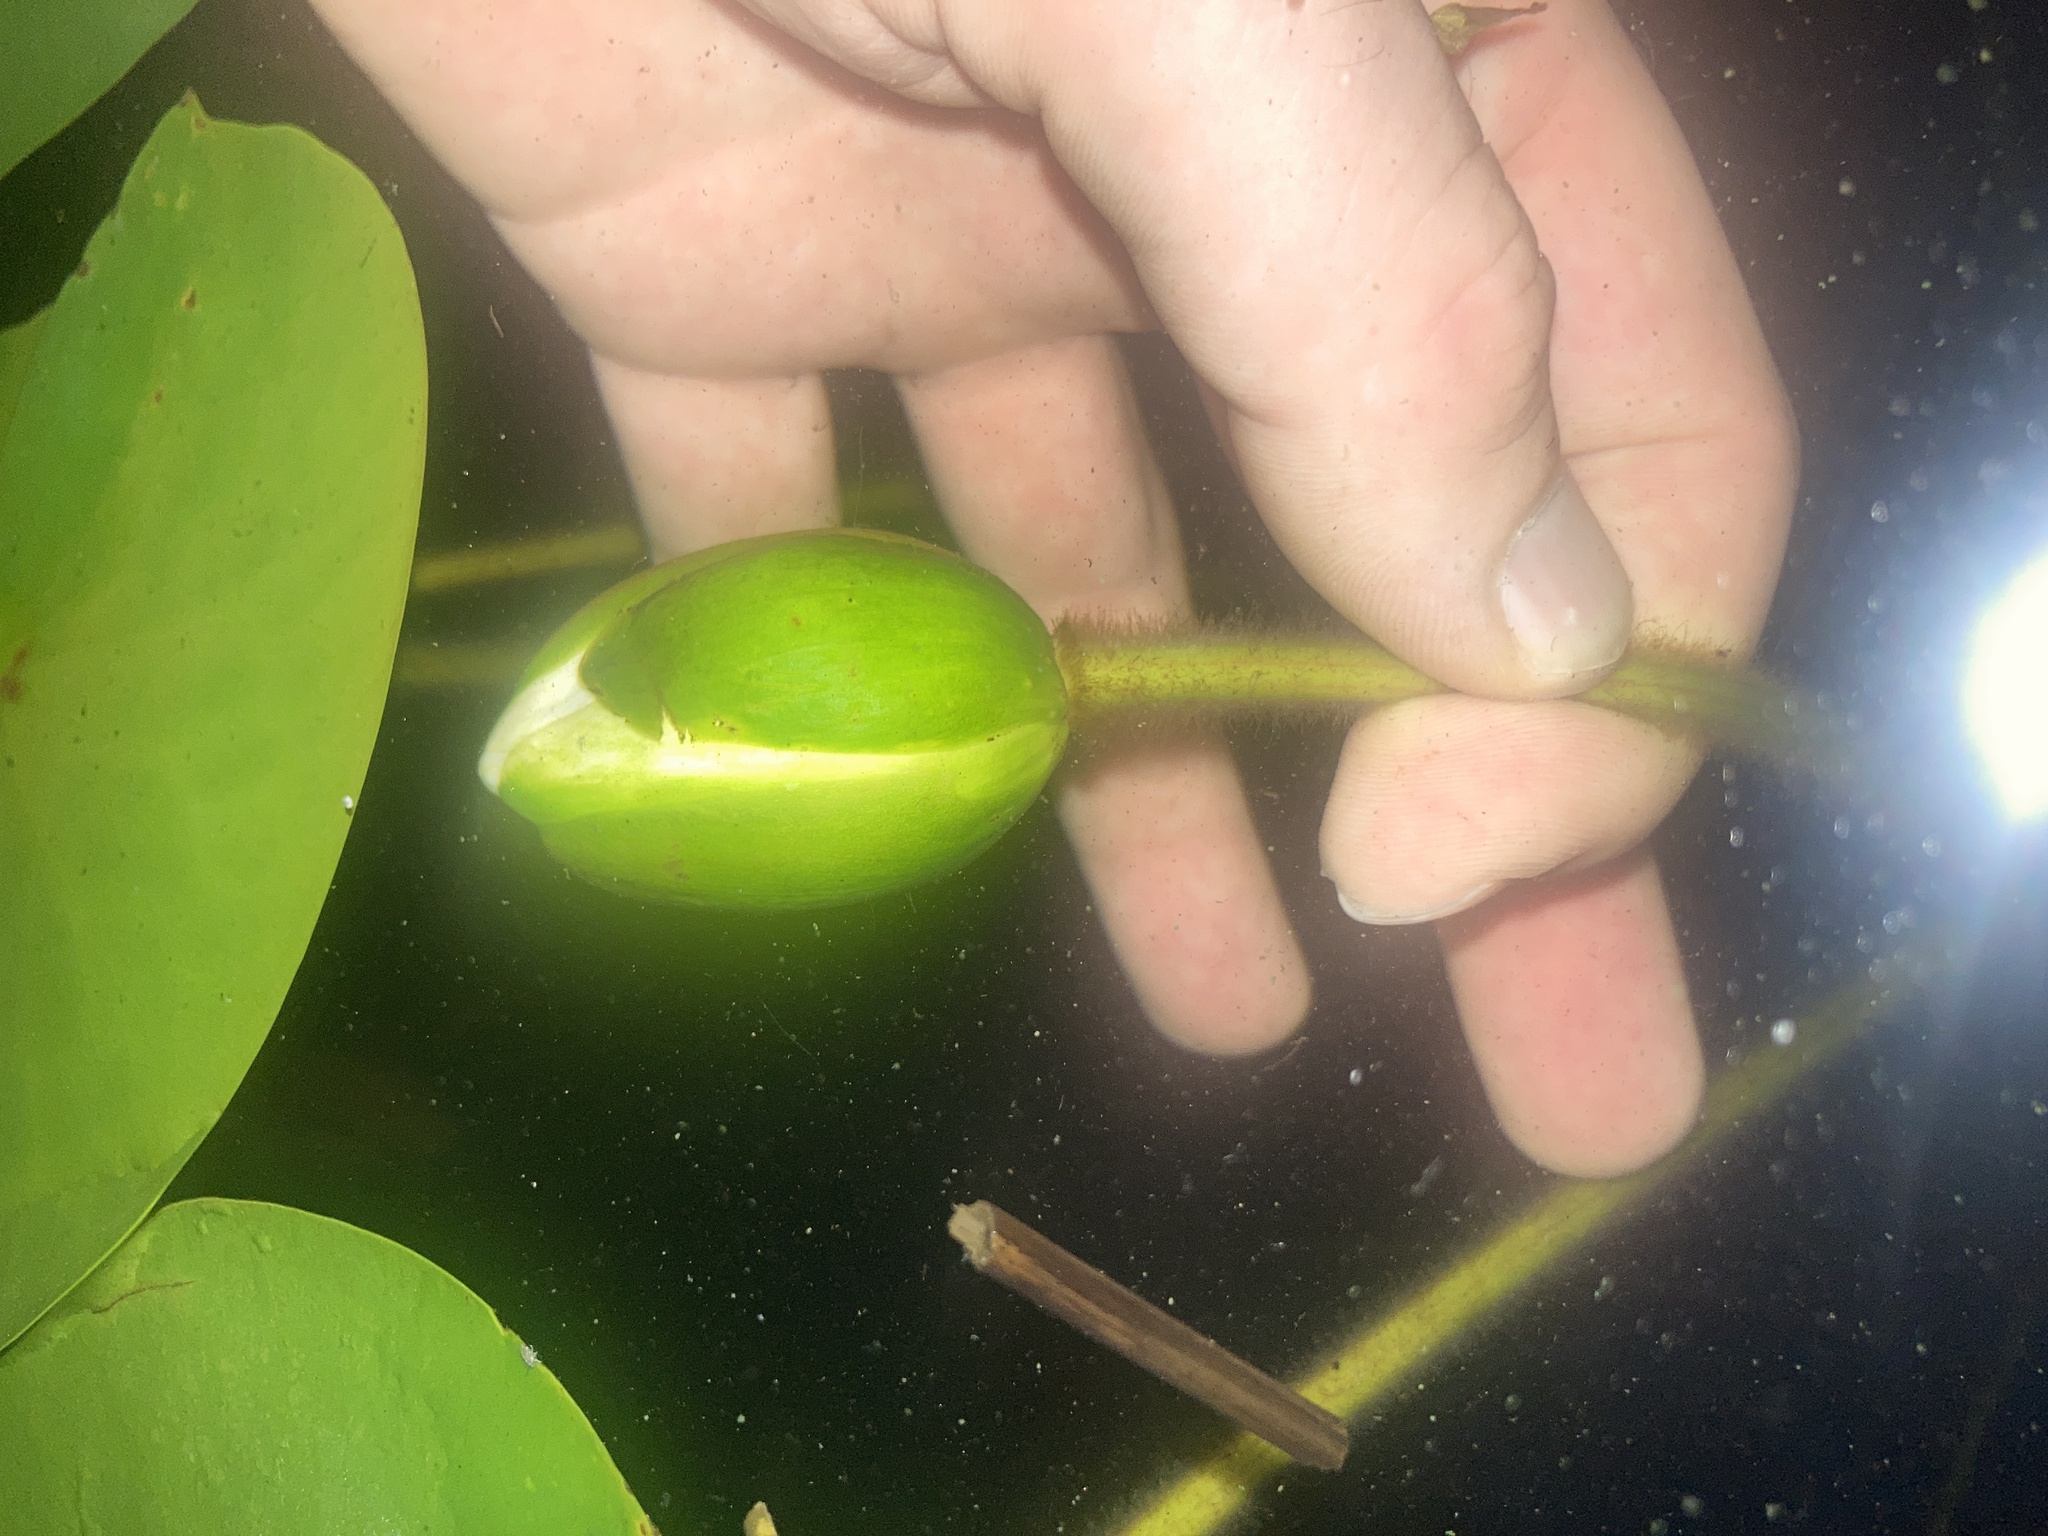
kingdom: Plantae
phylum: Tracheophyta
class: Magnoliopsida
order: Nymphaeales
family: Nymphaeaceae
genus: Nymphaea
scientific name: Nymphaea odorata
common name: Fragrant water-lily
